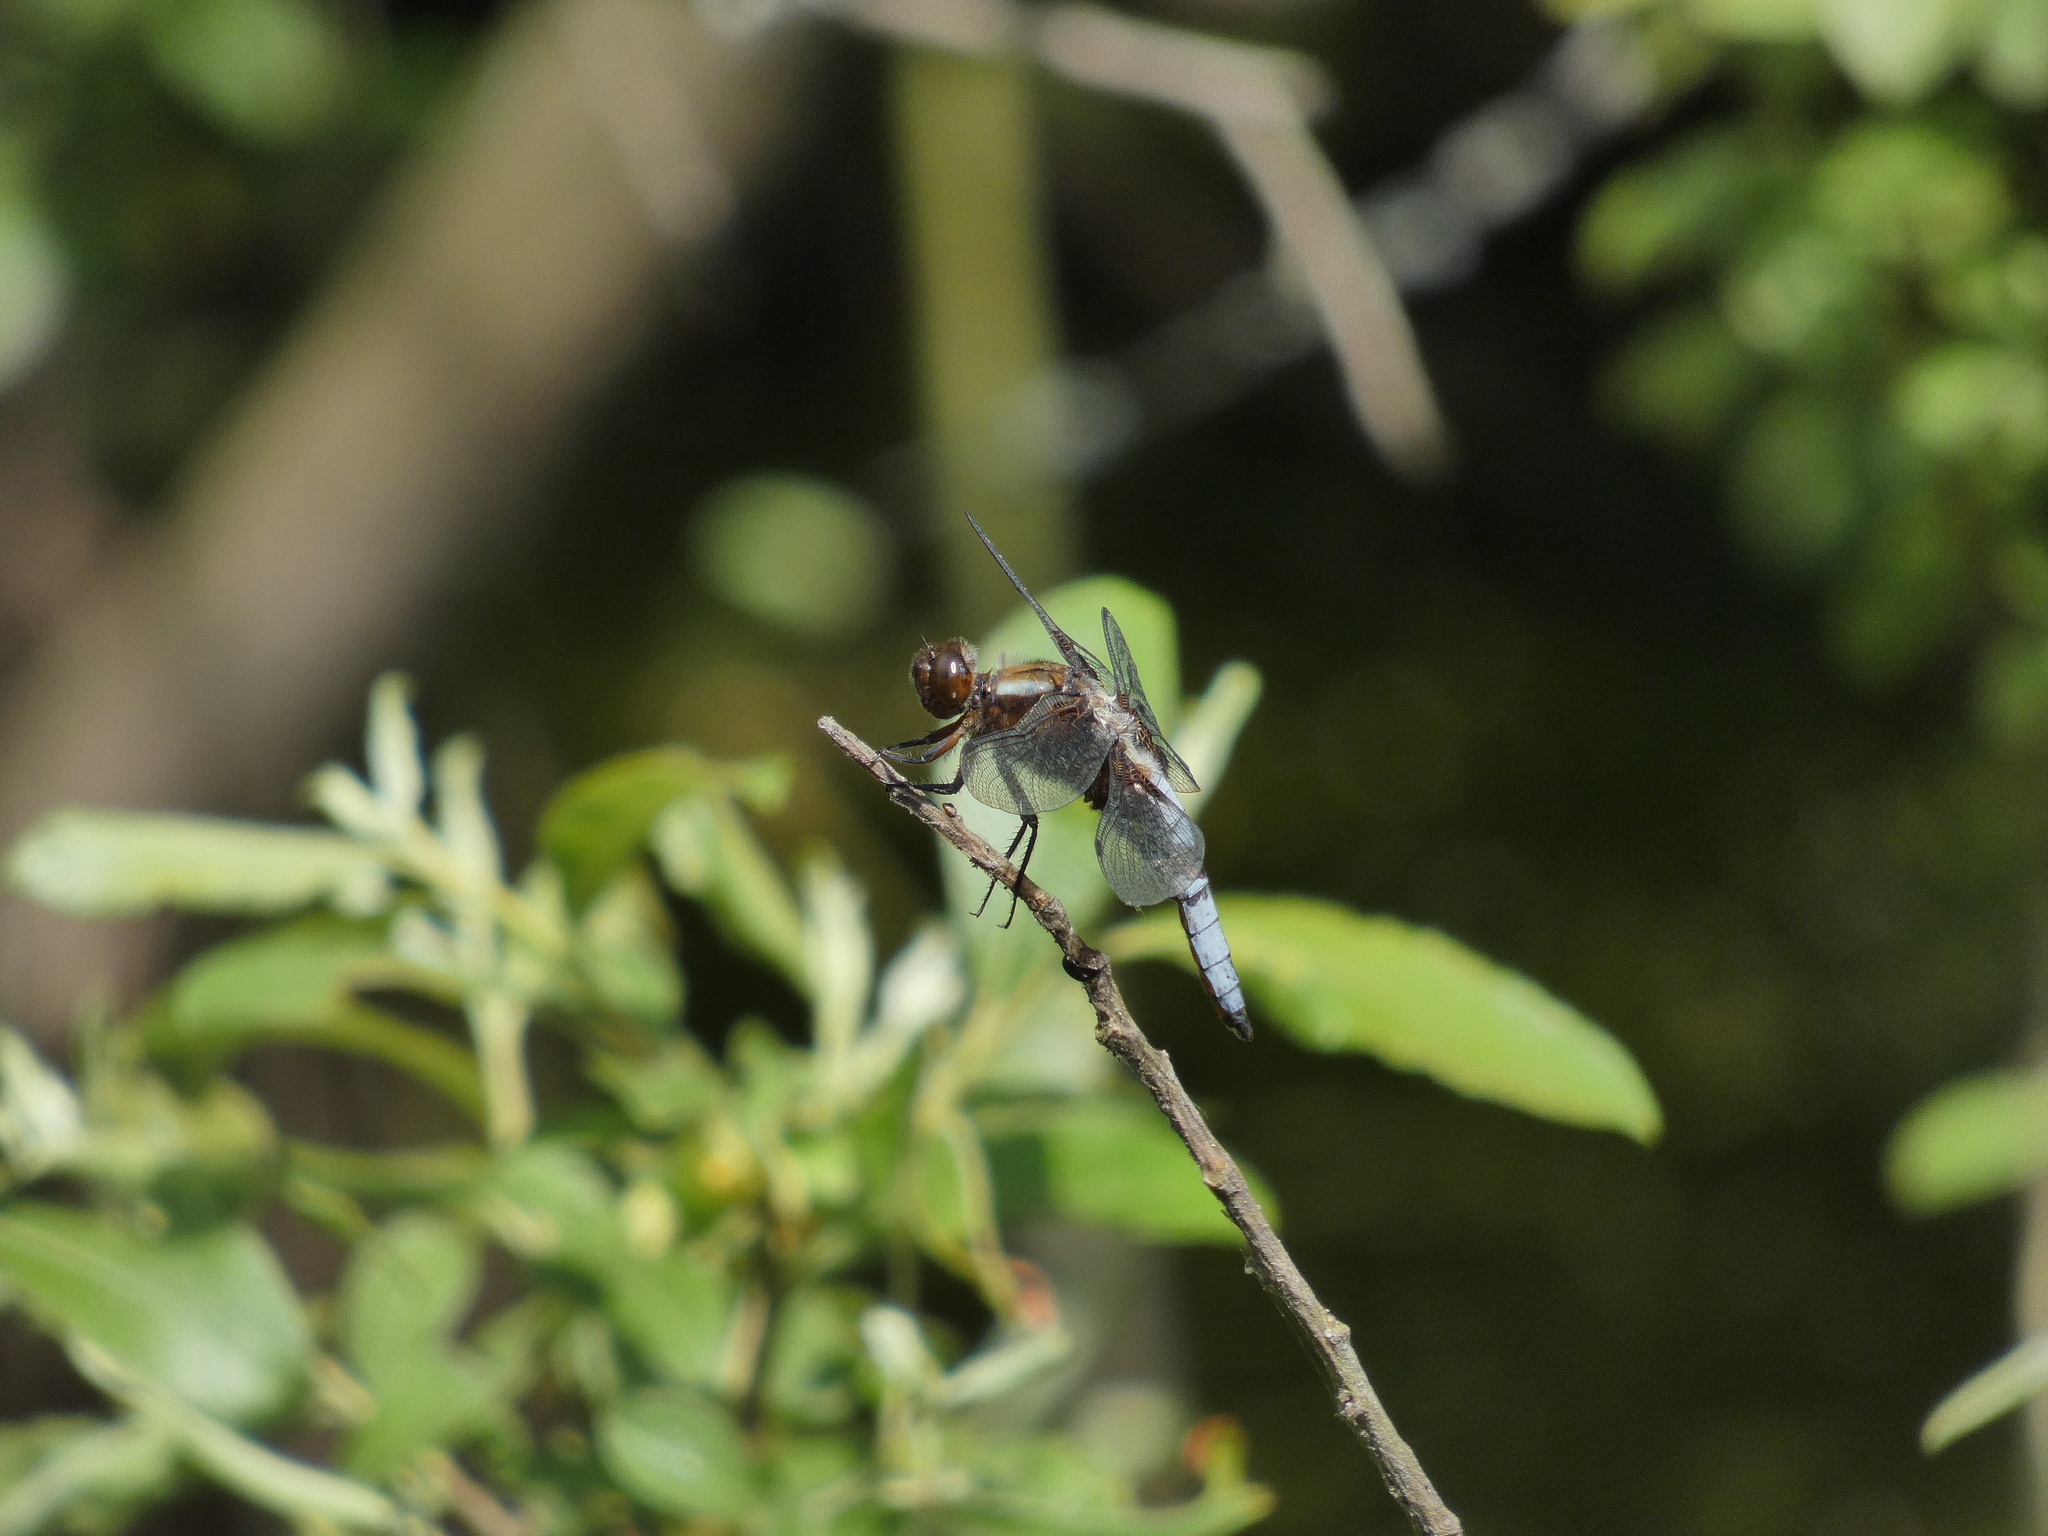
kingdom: Animalia
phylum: Arthropoda
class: Insecta
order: Odonata
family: Libellulidae
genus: Libellula
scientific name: Libellula depressa
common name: Broad-bodied chaser
